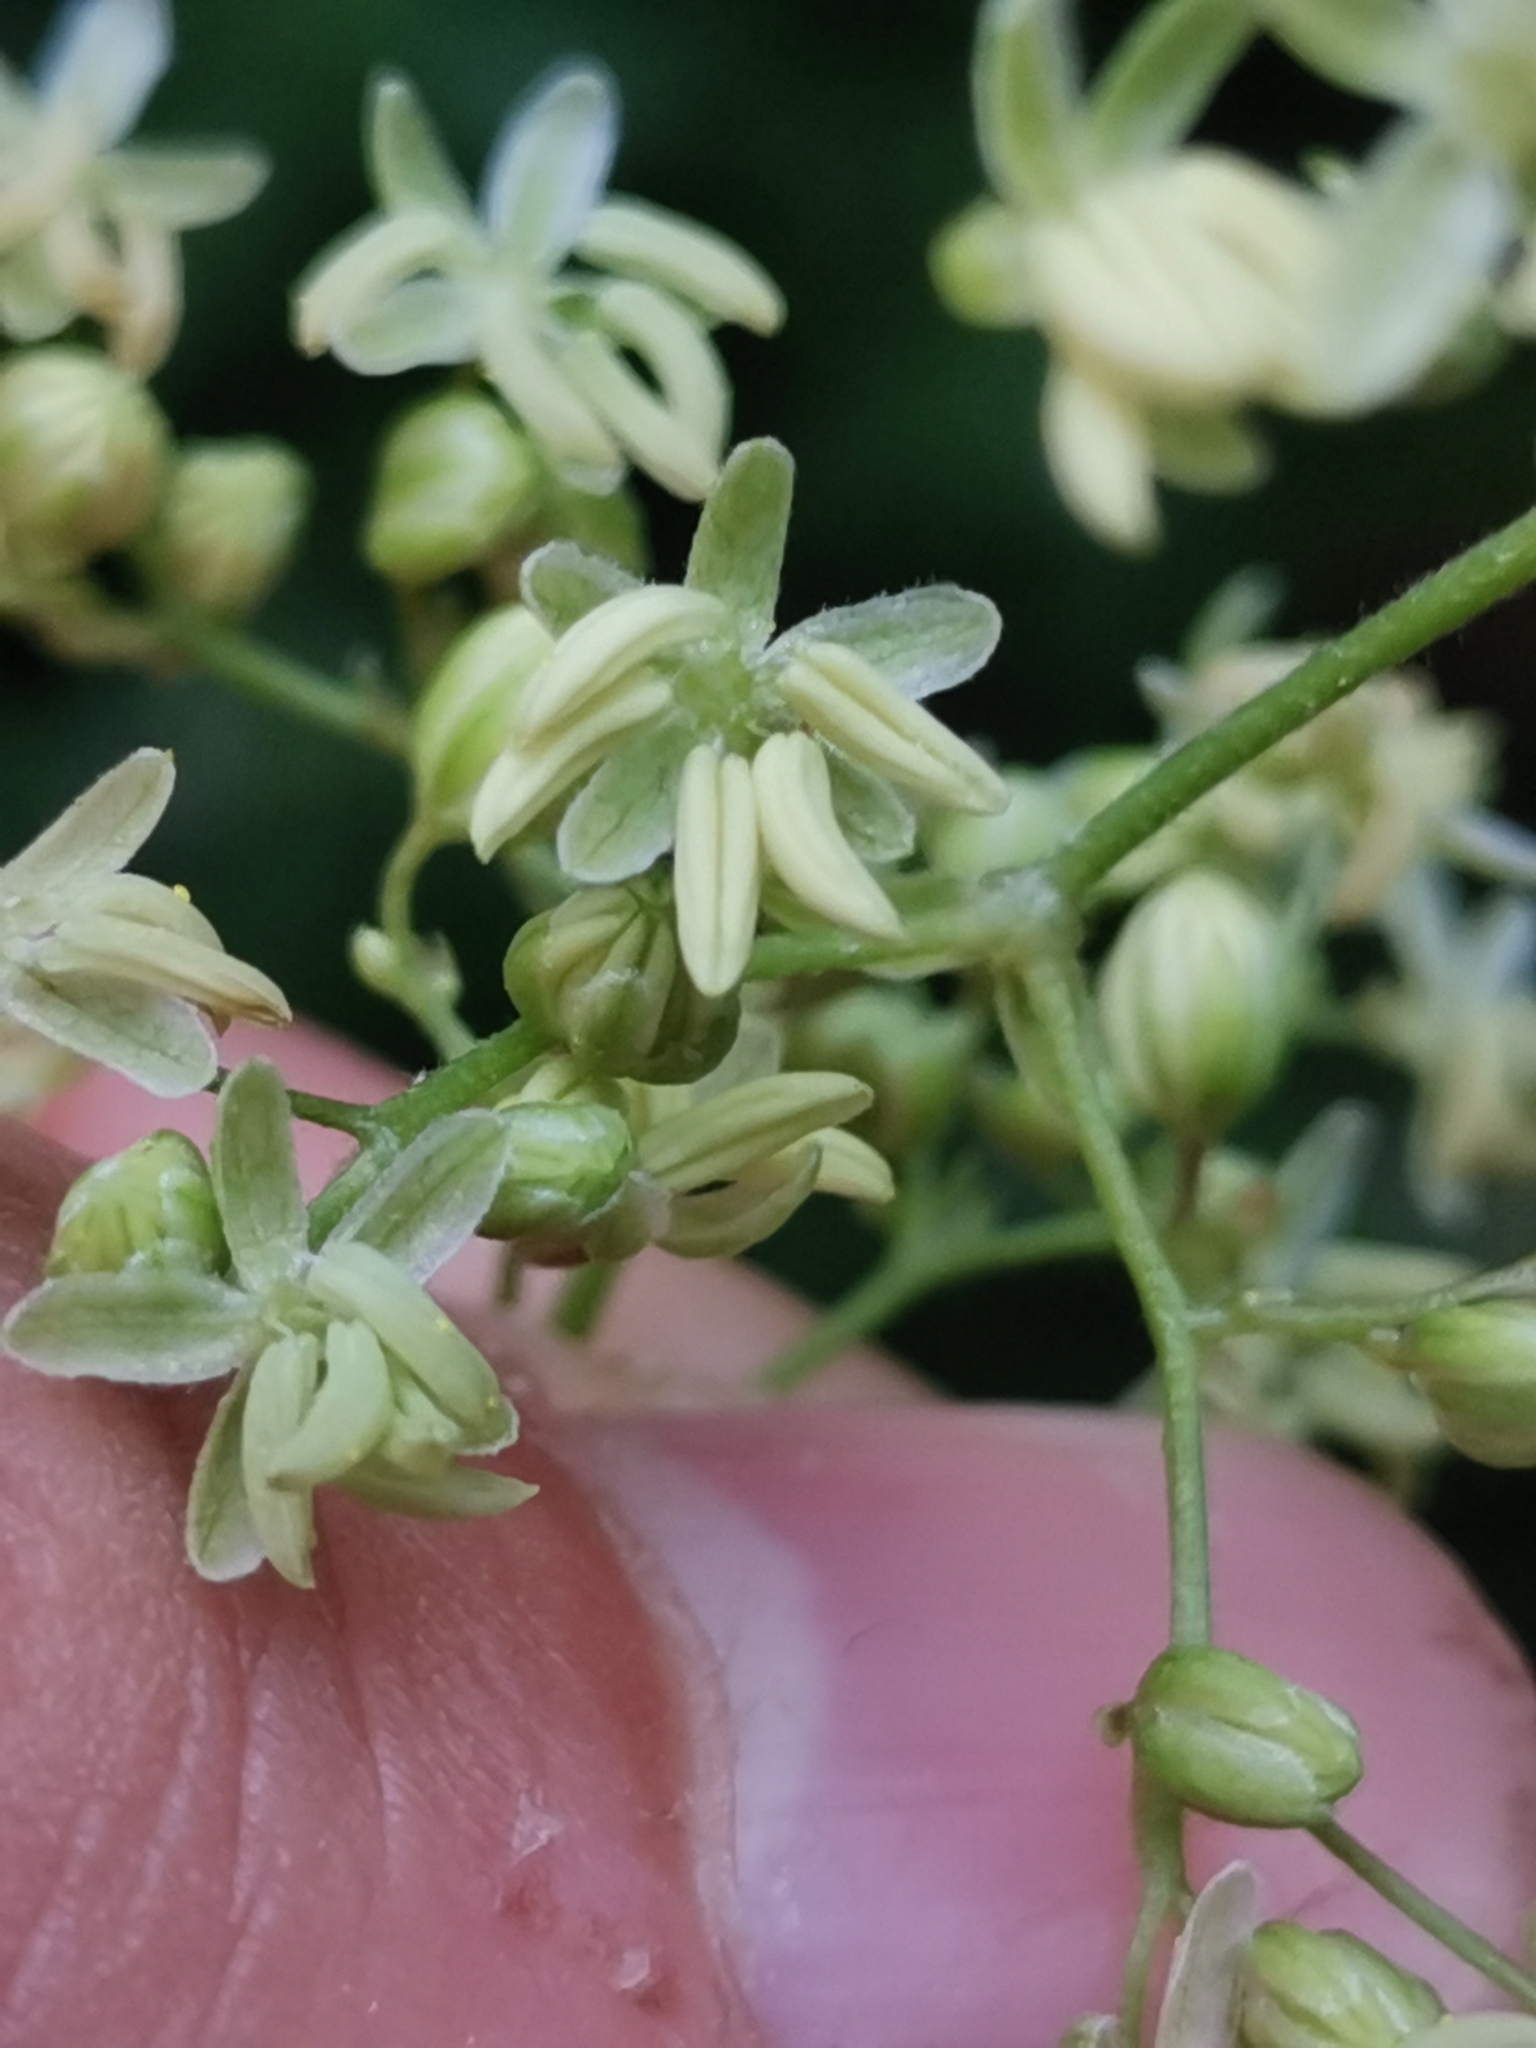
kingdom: Plantae
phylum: Tracheophyta
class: Magnoliopsida
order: Rosales
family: Cannabaceae
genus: Humulus
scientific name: Humulus lupulus
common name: Hop
